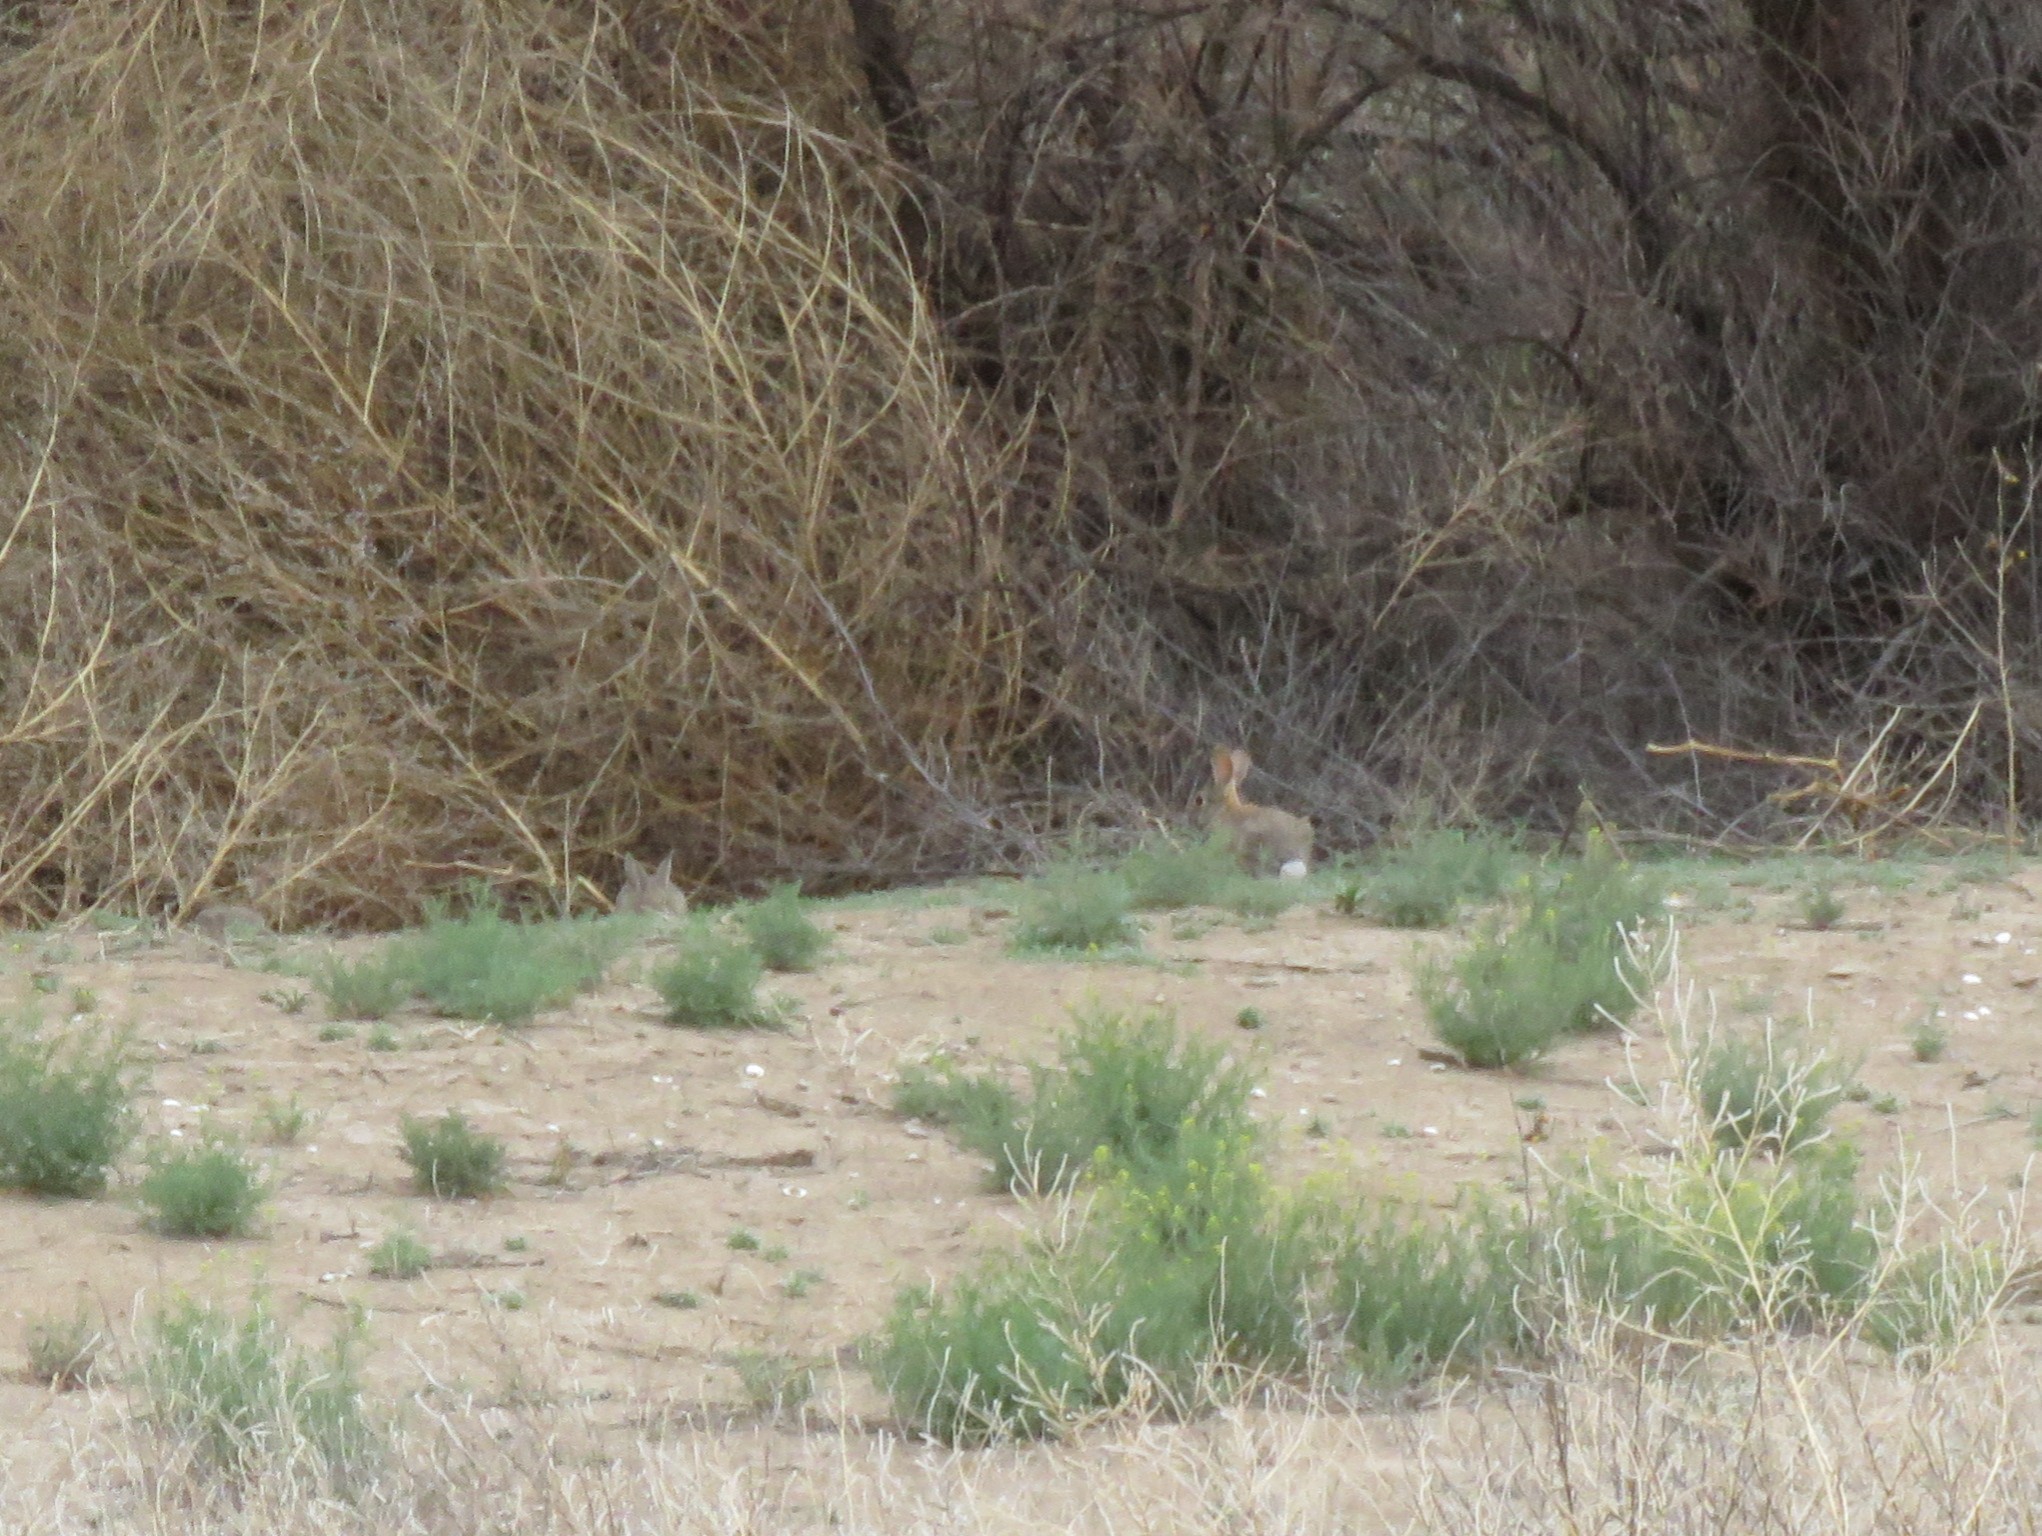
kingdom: Animalia
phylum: Chordata
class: Mammalia
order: Lagomorpha
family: Leporidae
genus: Sylvilagus
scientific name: Sylvilagus audubonii
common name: Desert cottontail
